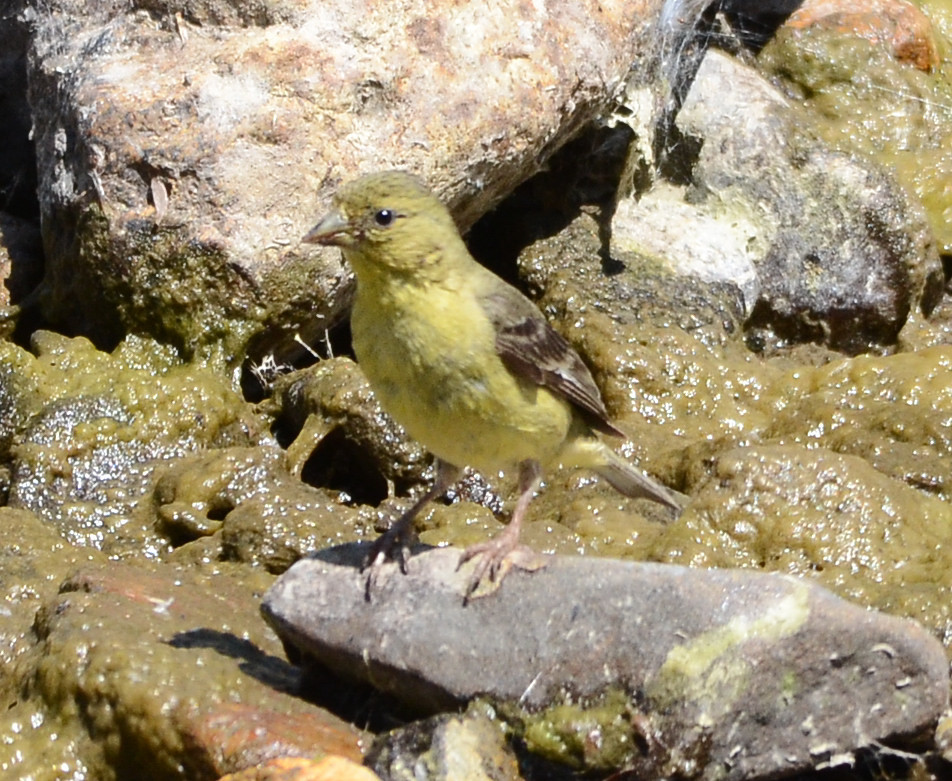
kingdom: Animalia
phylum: Chordata
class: Aves
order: Passeriformes
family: Fringillidae
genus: Spinus
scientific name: Spinus psaltria
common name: Lesser goldfinch
